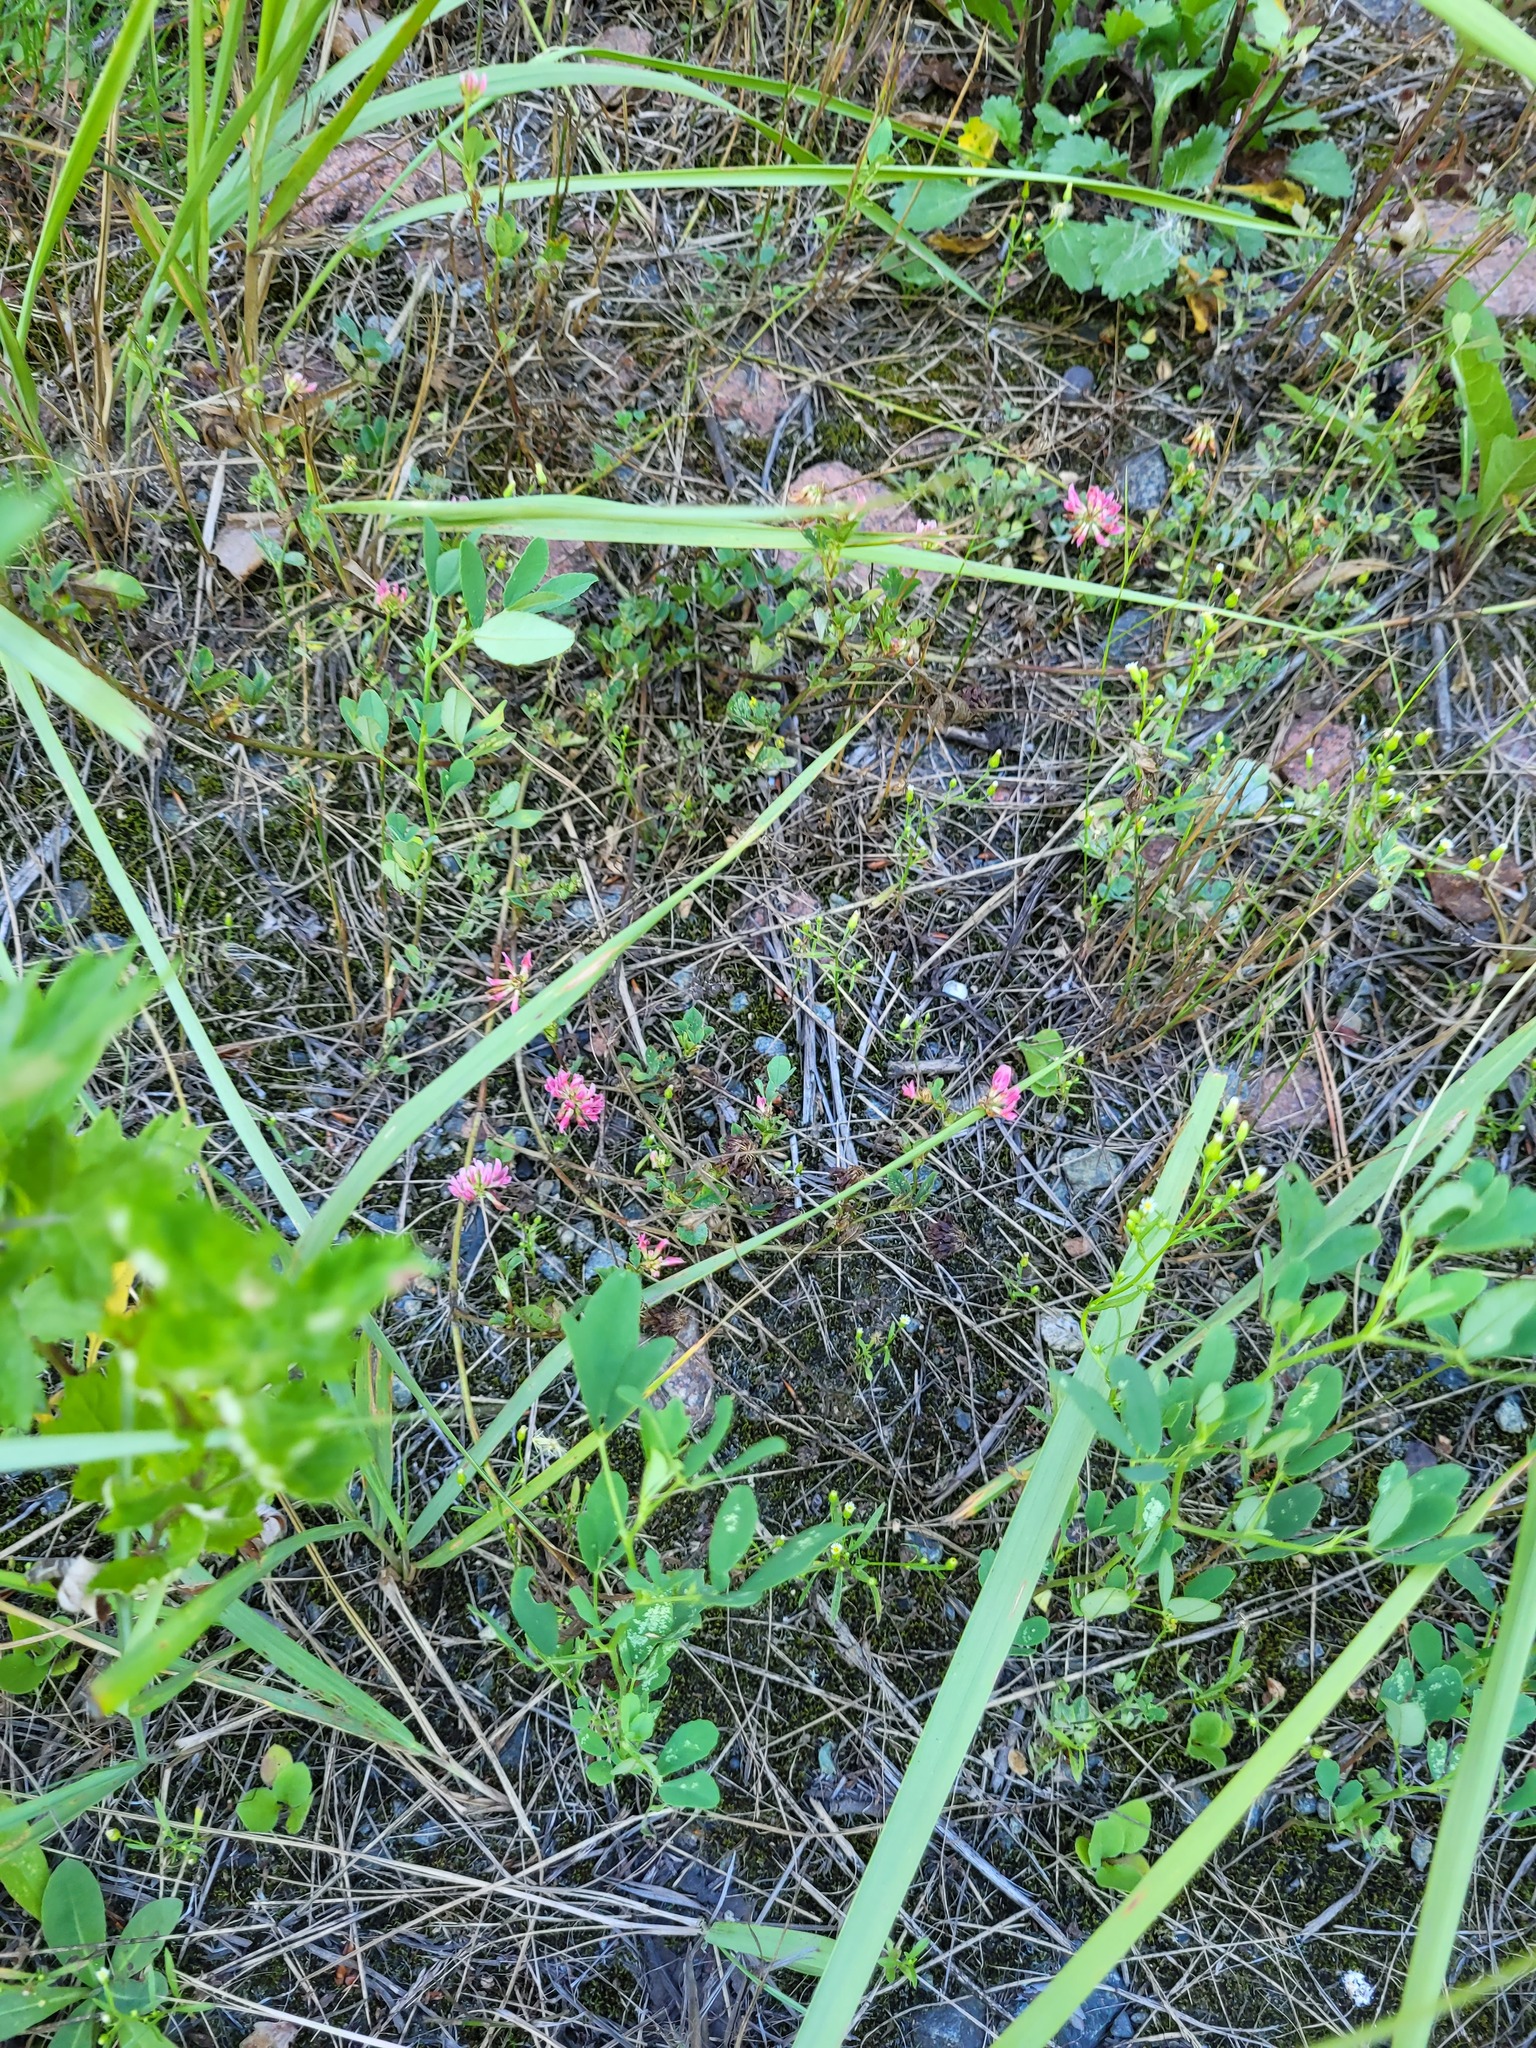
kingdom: Plantae
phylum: Tracheophyta
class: Magnoliopsida
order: Fabales
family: Fabaceae
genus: Trifolium
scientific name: Trifolium hybridum
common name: Alsike clover
